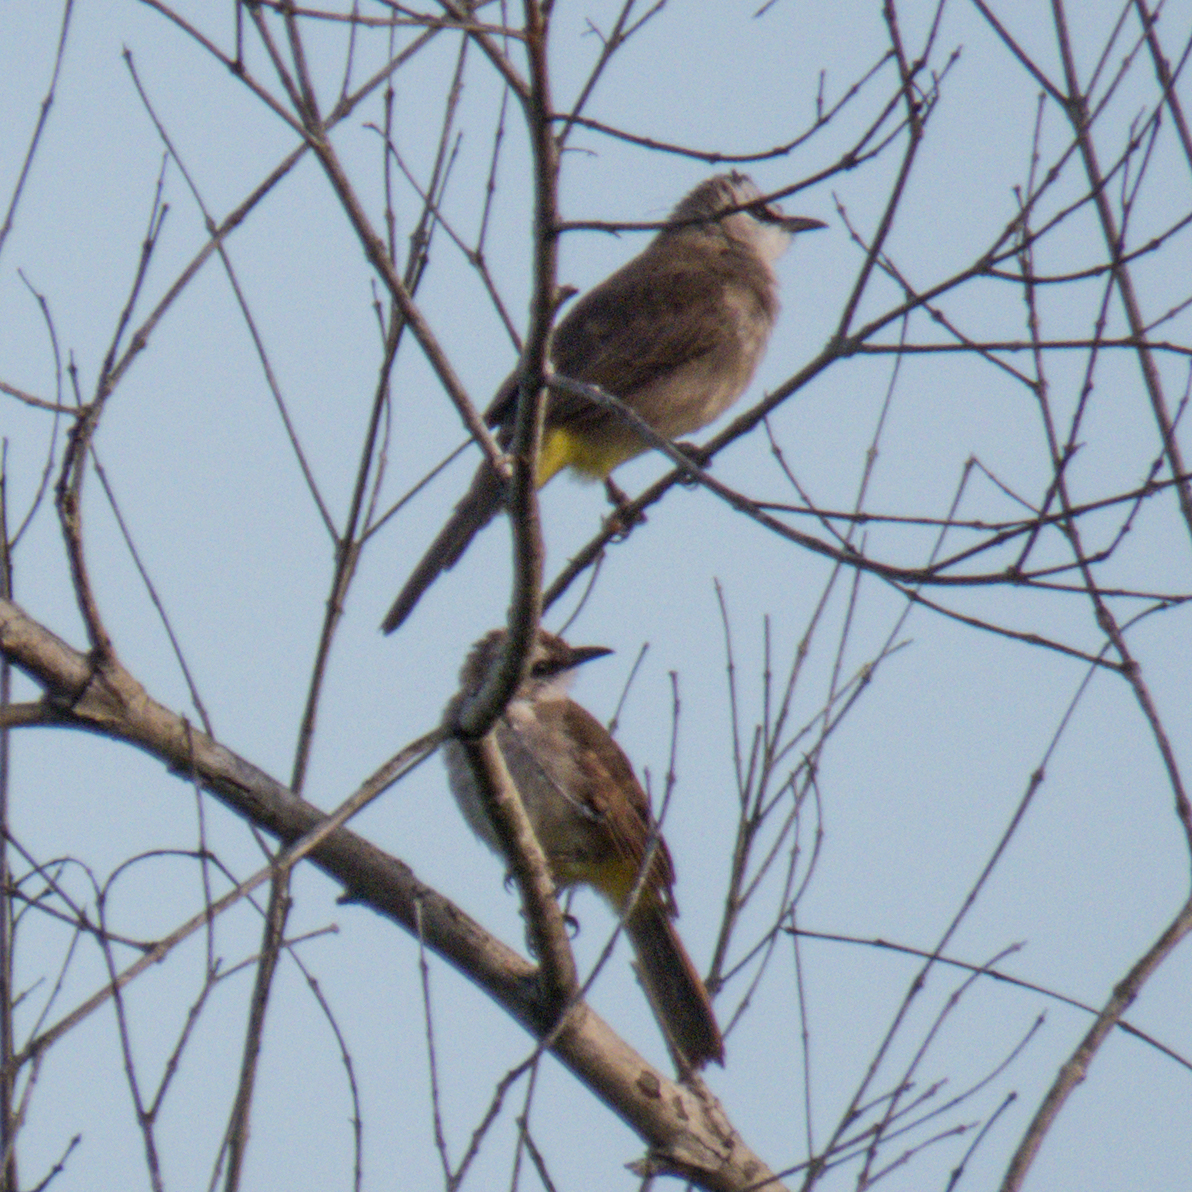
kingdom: Animalia
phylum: Chordata
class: Aves
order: Passeriformes
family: Pycnonotidae
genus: Pycnonotus
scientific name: Pycnonotus goiavier
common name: Yellow-vented bulbul
